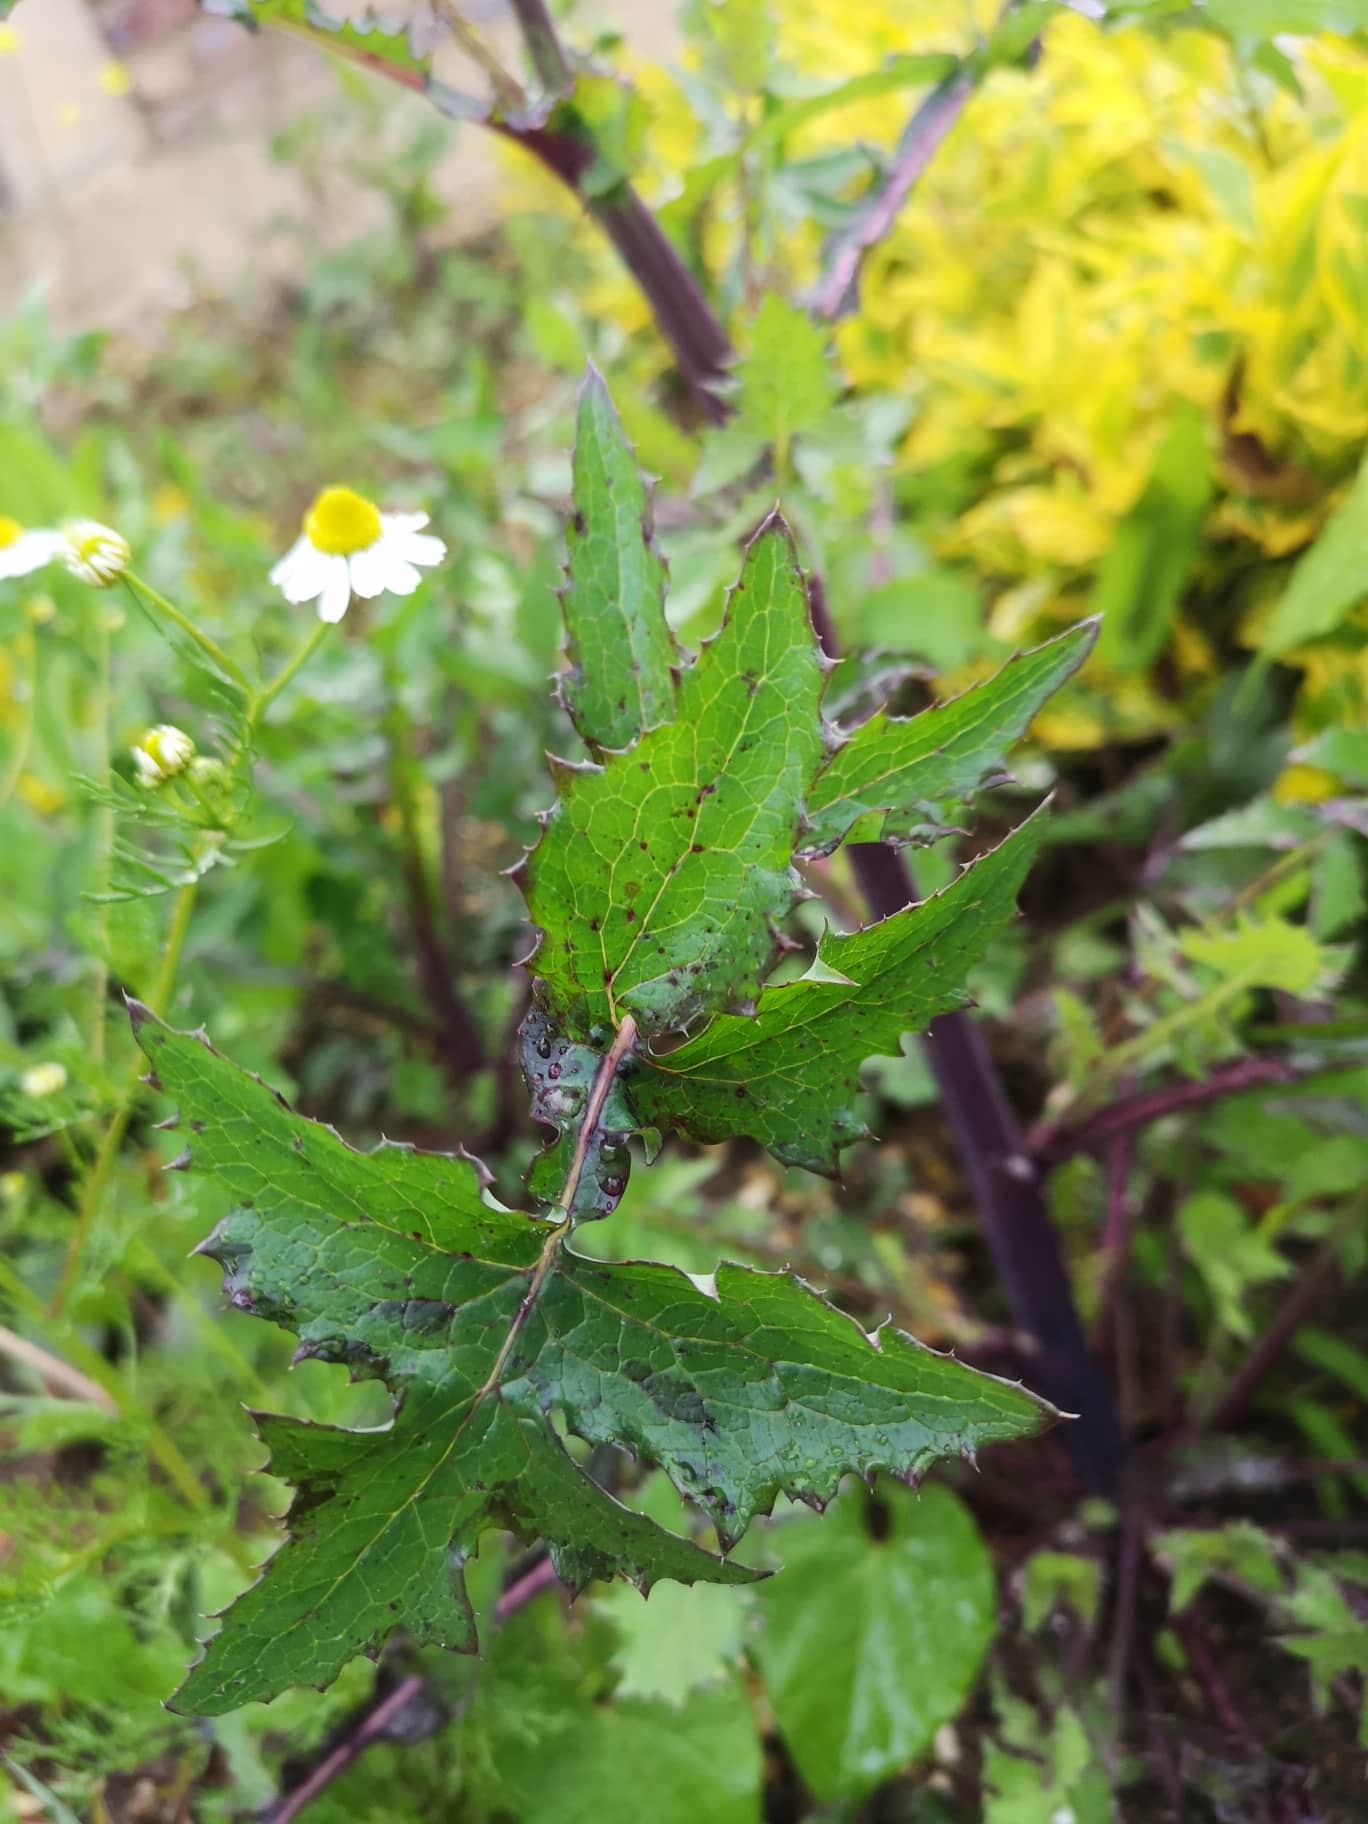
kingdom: Plantae
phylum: Tracheophyta
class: Magnoliopsida
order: Asterales
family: Asteraceae
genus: Sonchus
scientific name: Sonchus oleraceus
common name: Common sowthistle
